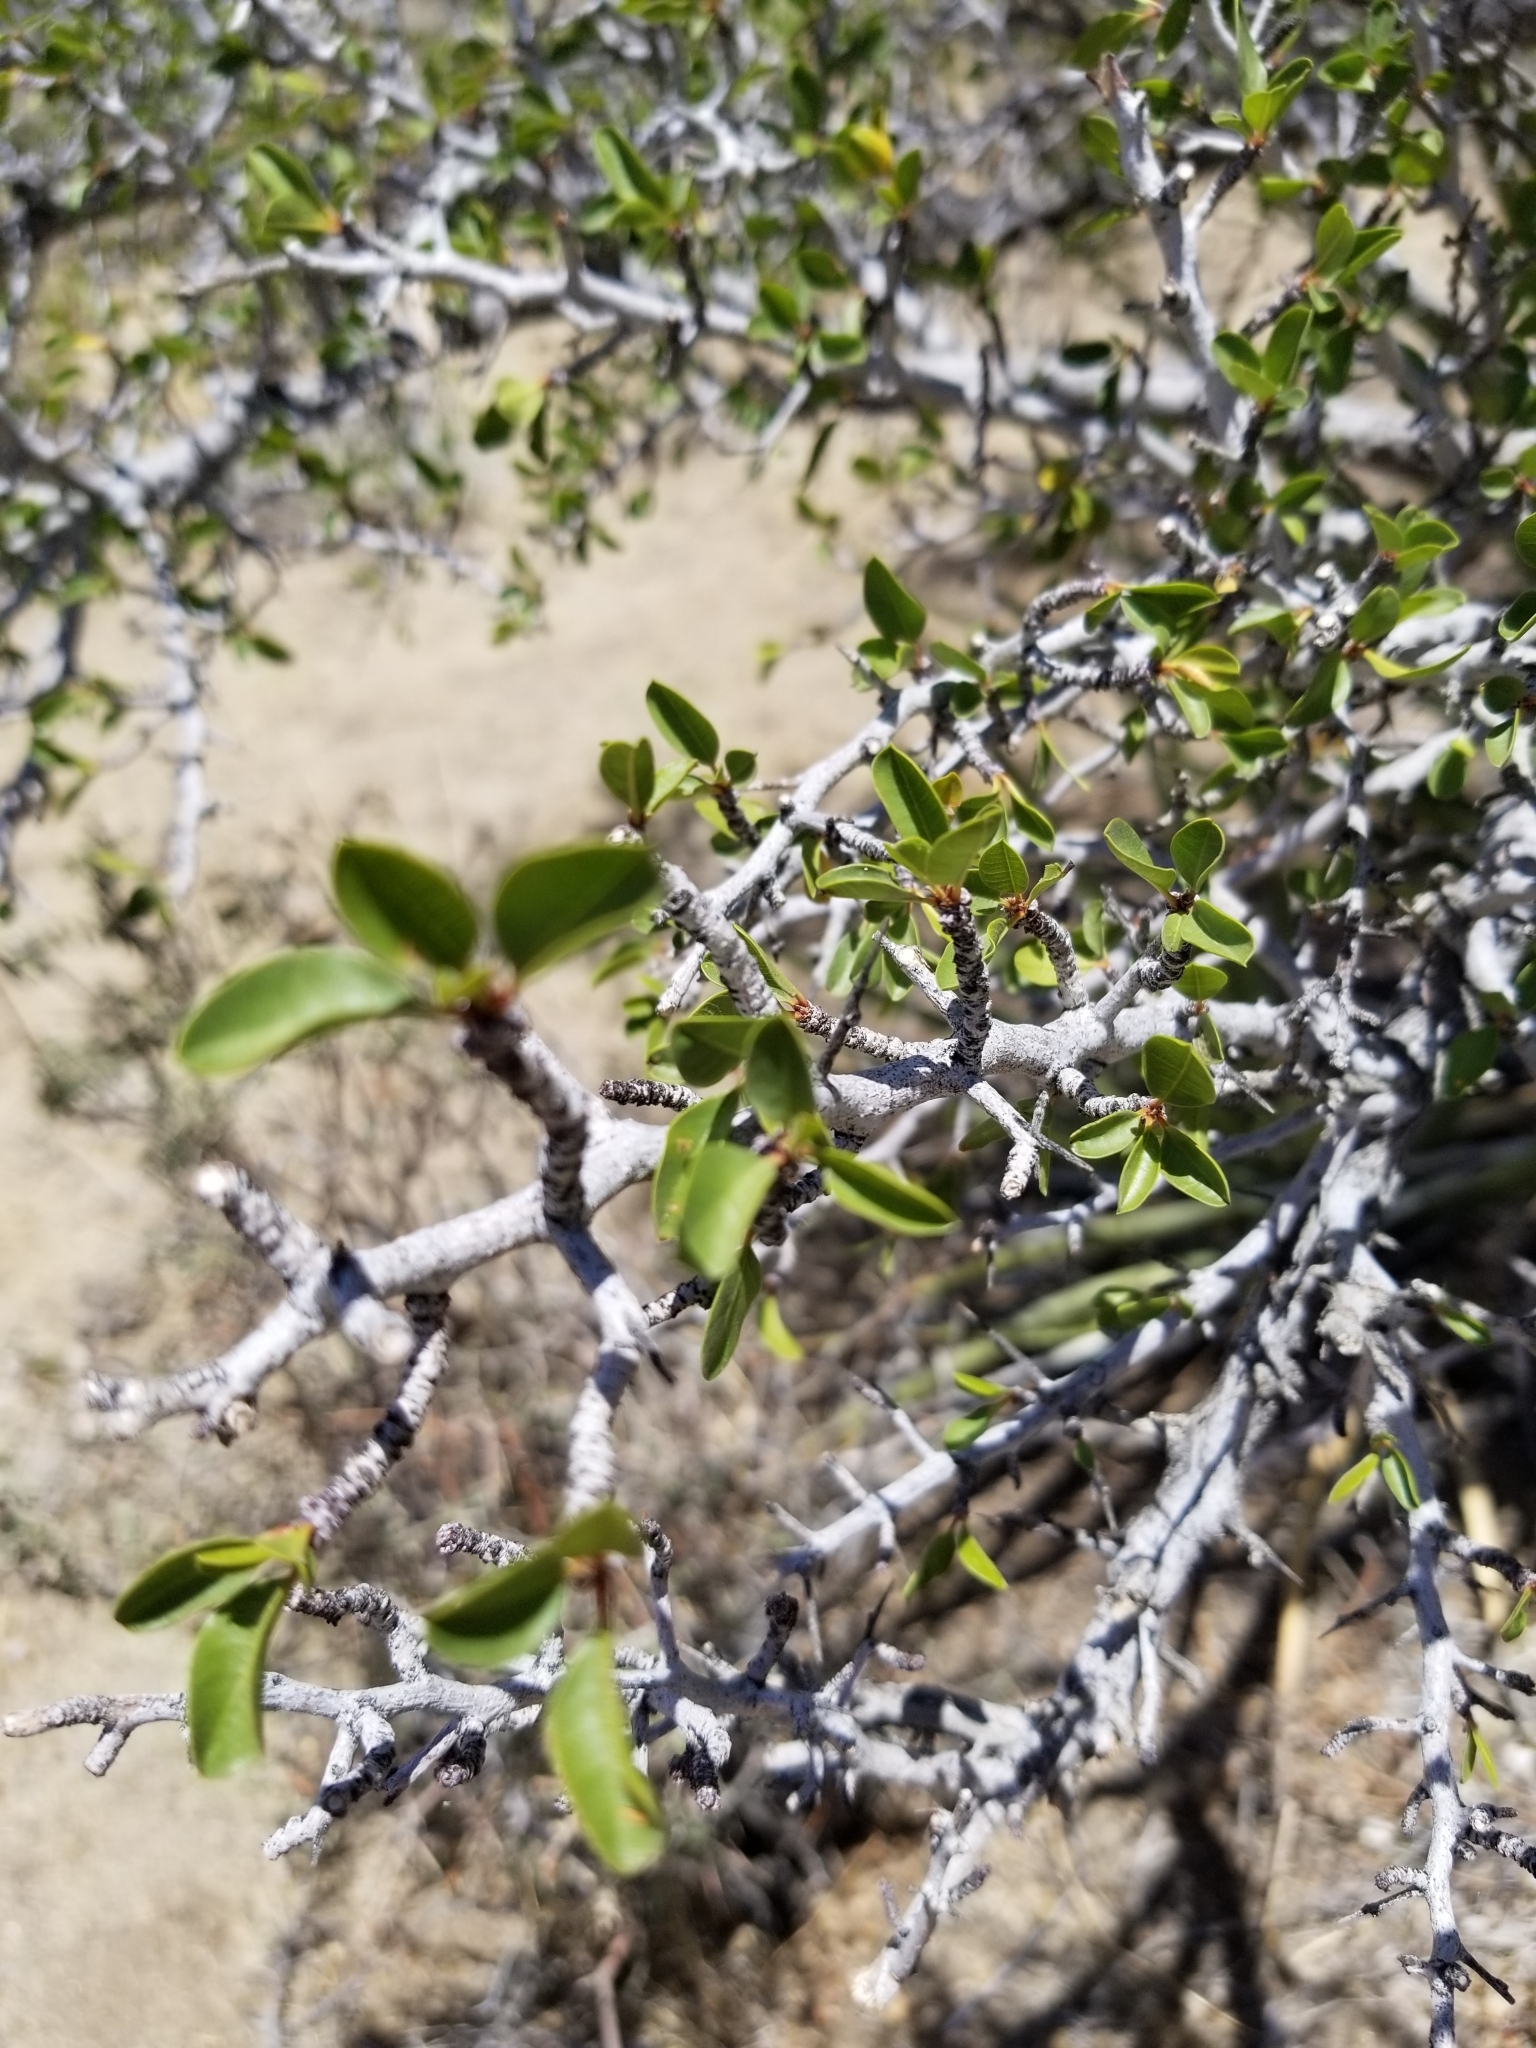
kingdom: Plantae
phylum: Tracheophyta
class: Magnoliopsida
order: Rosales
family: Rhamnaceae
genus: Pseudoziziphus
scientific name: Pseudoziziphus parryi
